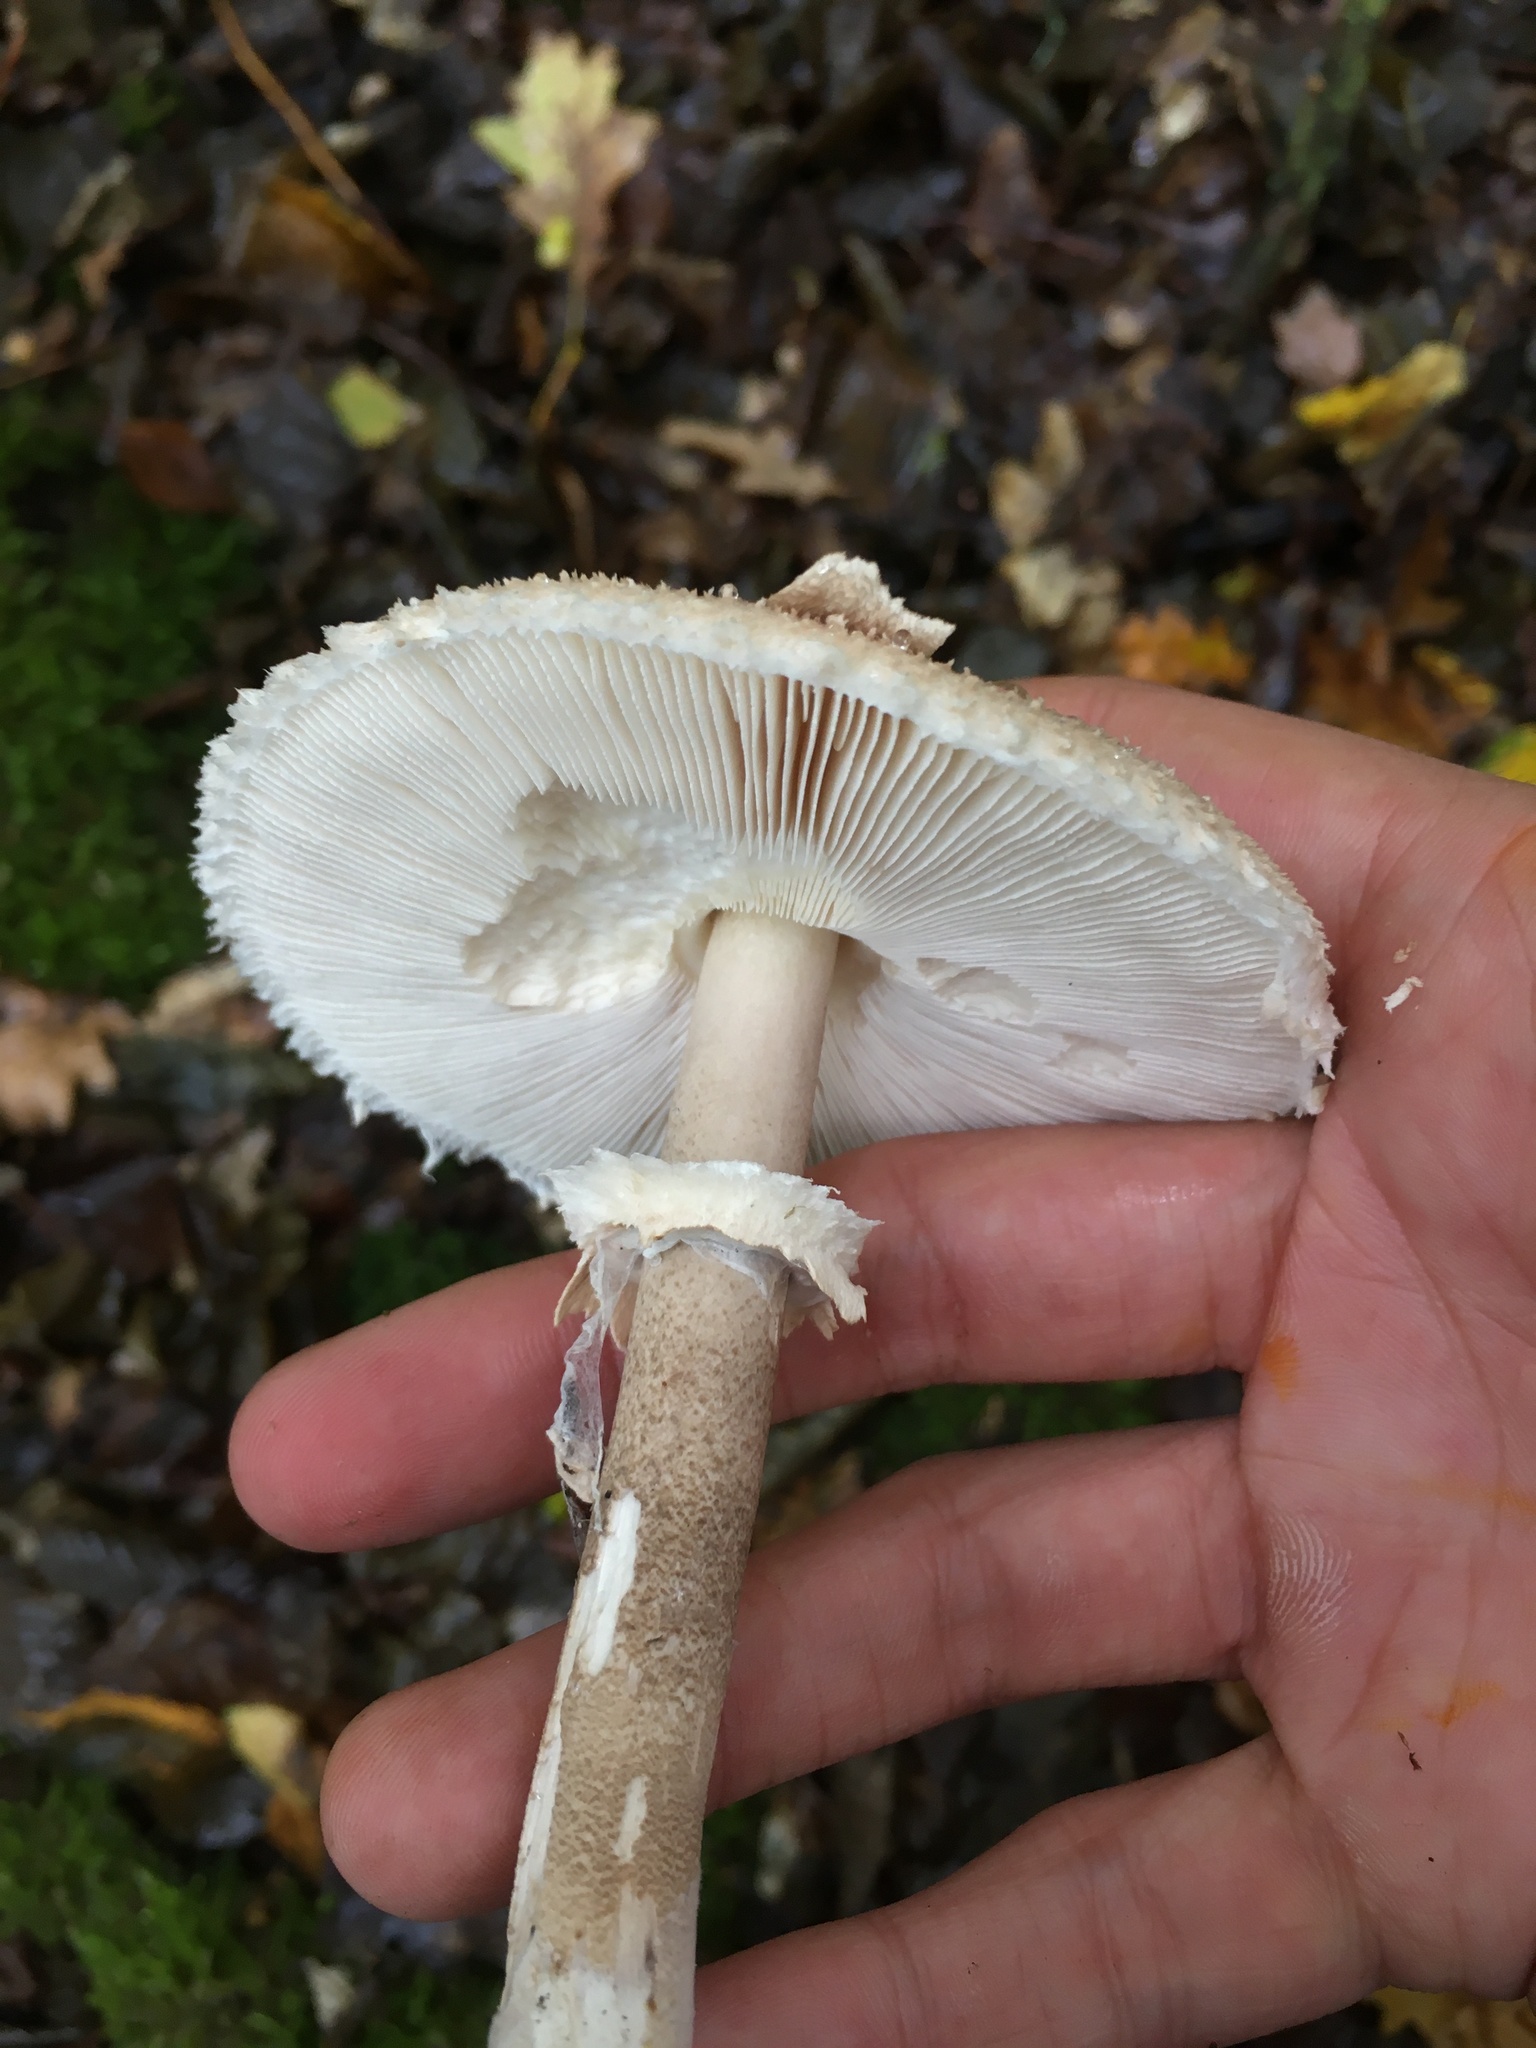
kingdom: Fungi
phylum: Basidiomycota
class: Agaricomycetes
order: Agaricales
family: Agaricaceae
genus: Macrolepiota
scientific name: Macrolepiota procera
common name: Parasol
